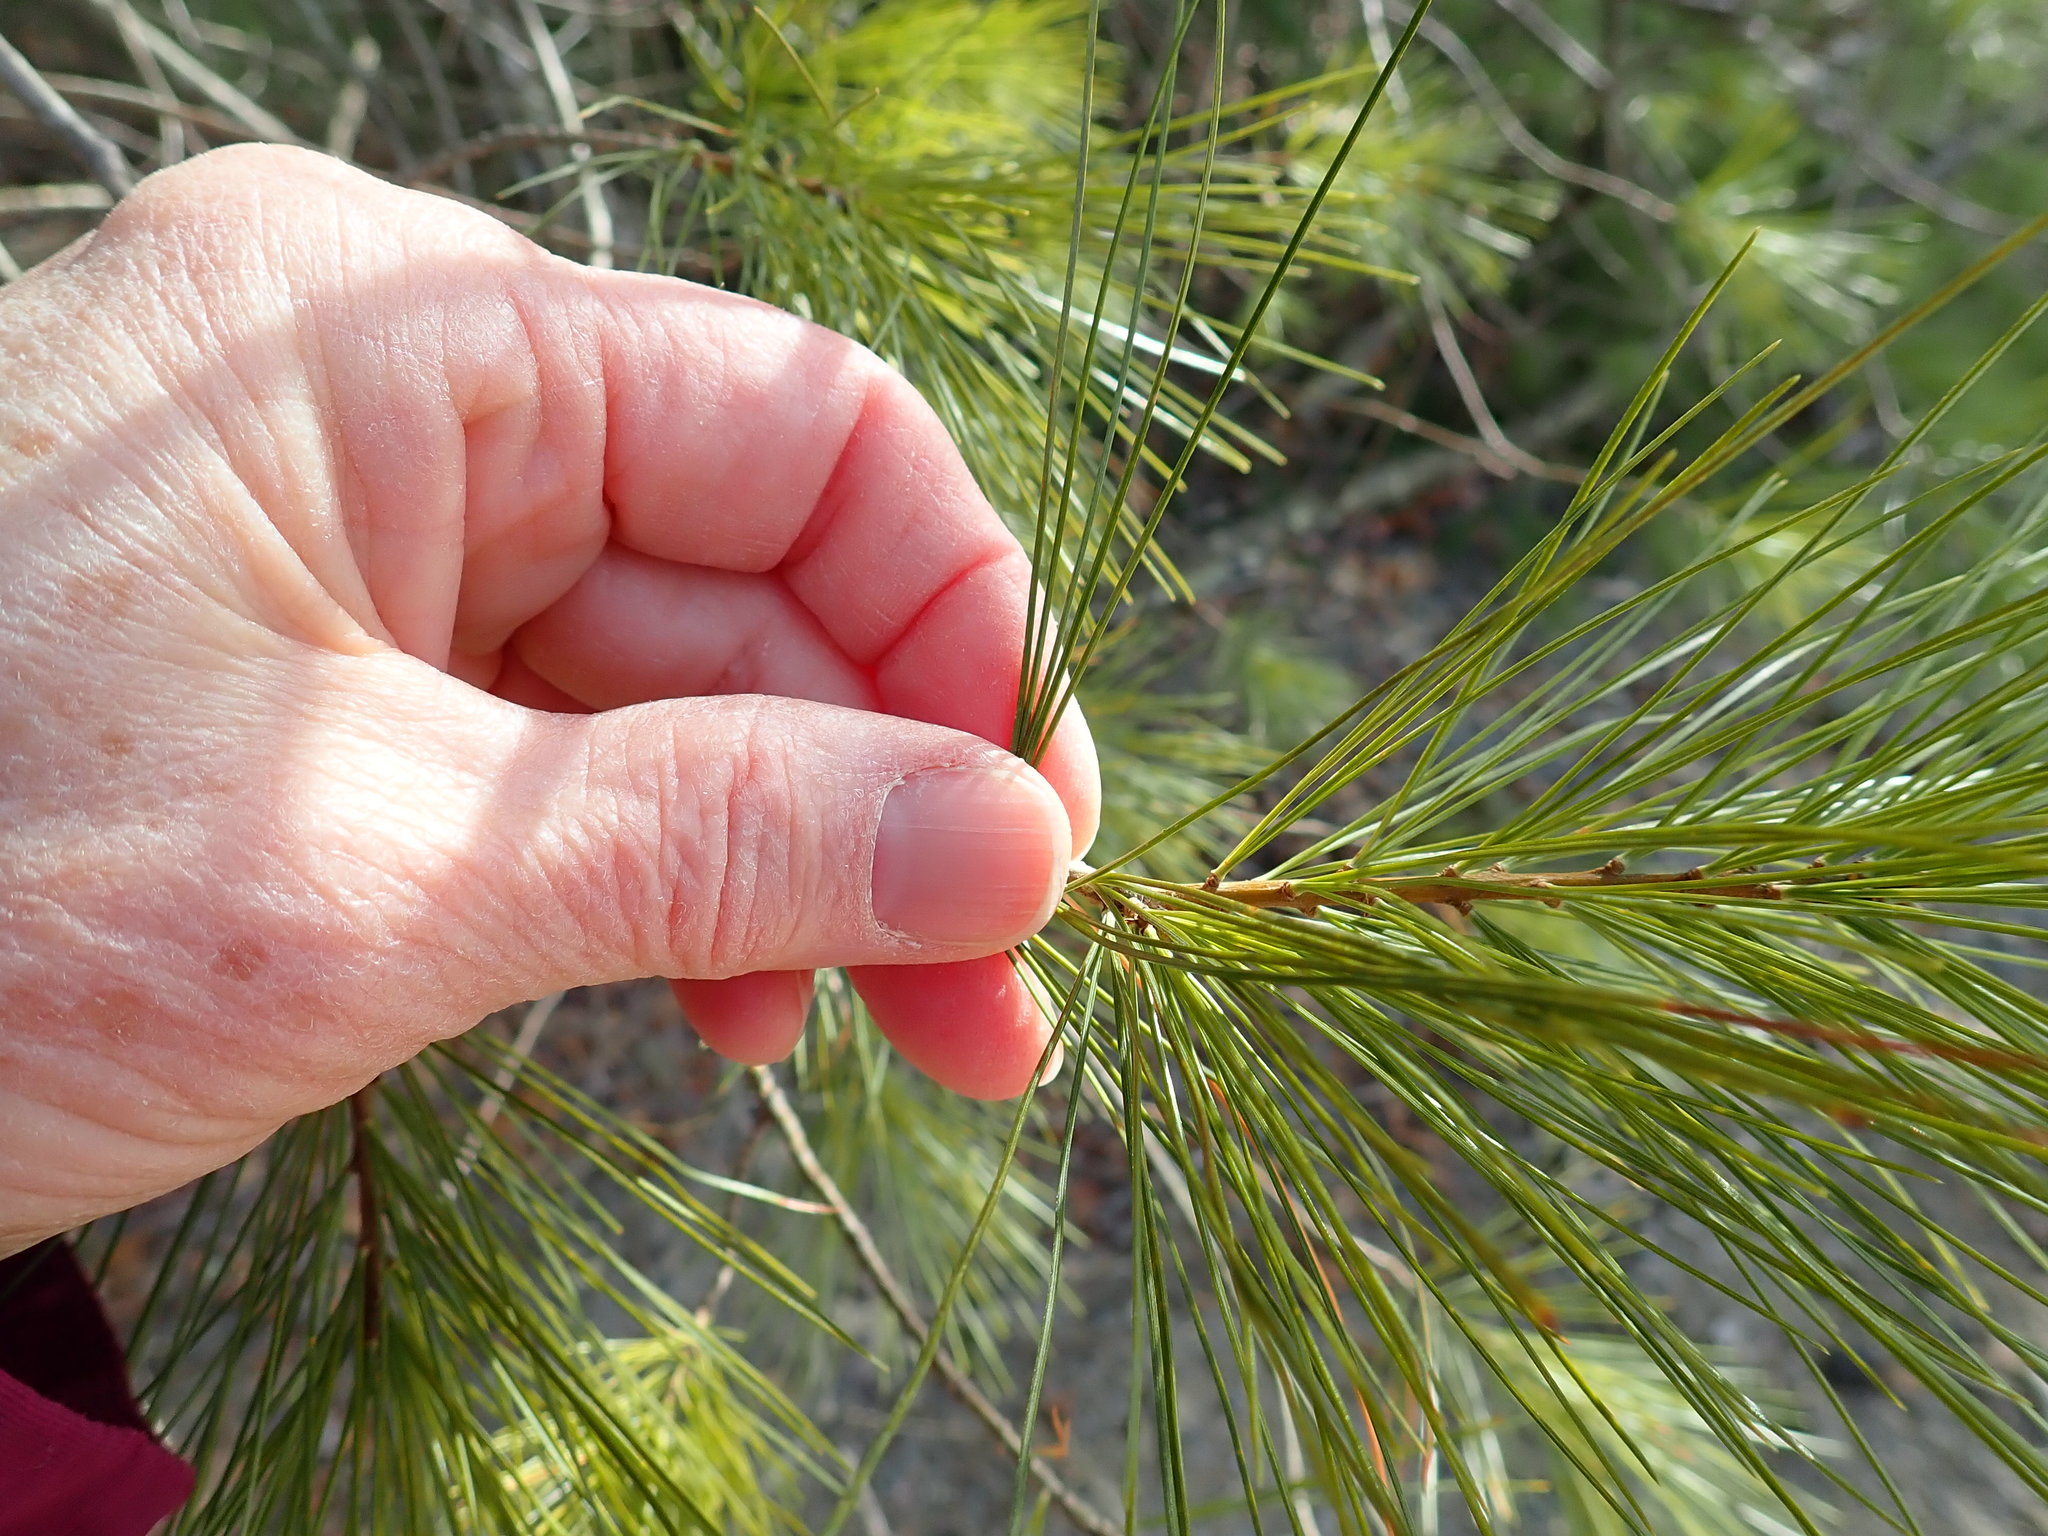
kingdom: Plantae
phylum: Tracheophyta
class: Pinopsida
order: Pinales
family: Pinaceae
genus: Pinus
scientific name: Pinus strobus
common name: Weymouth pine
